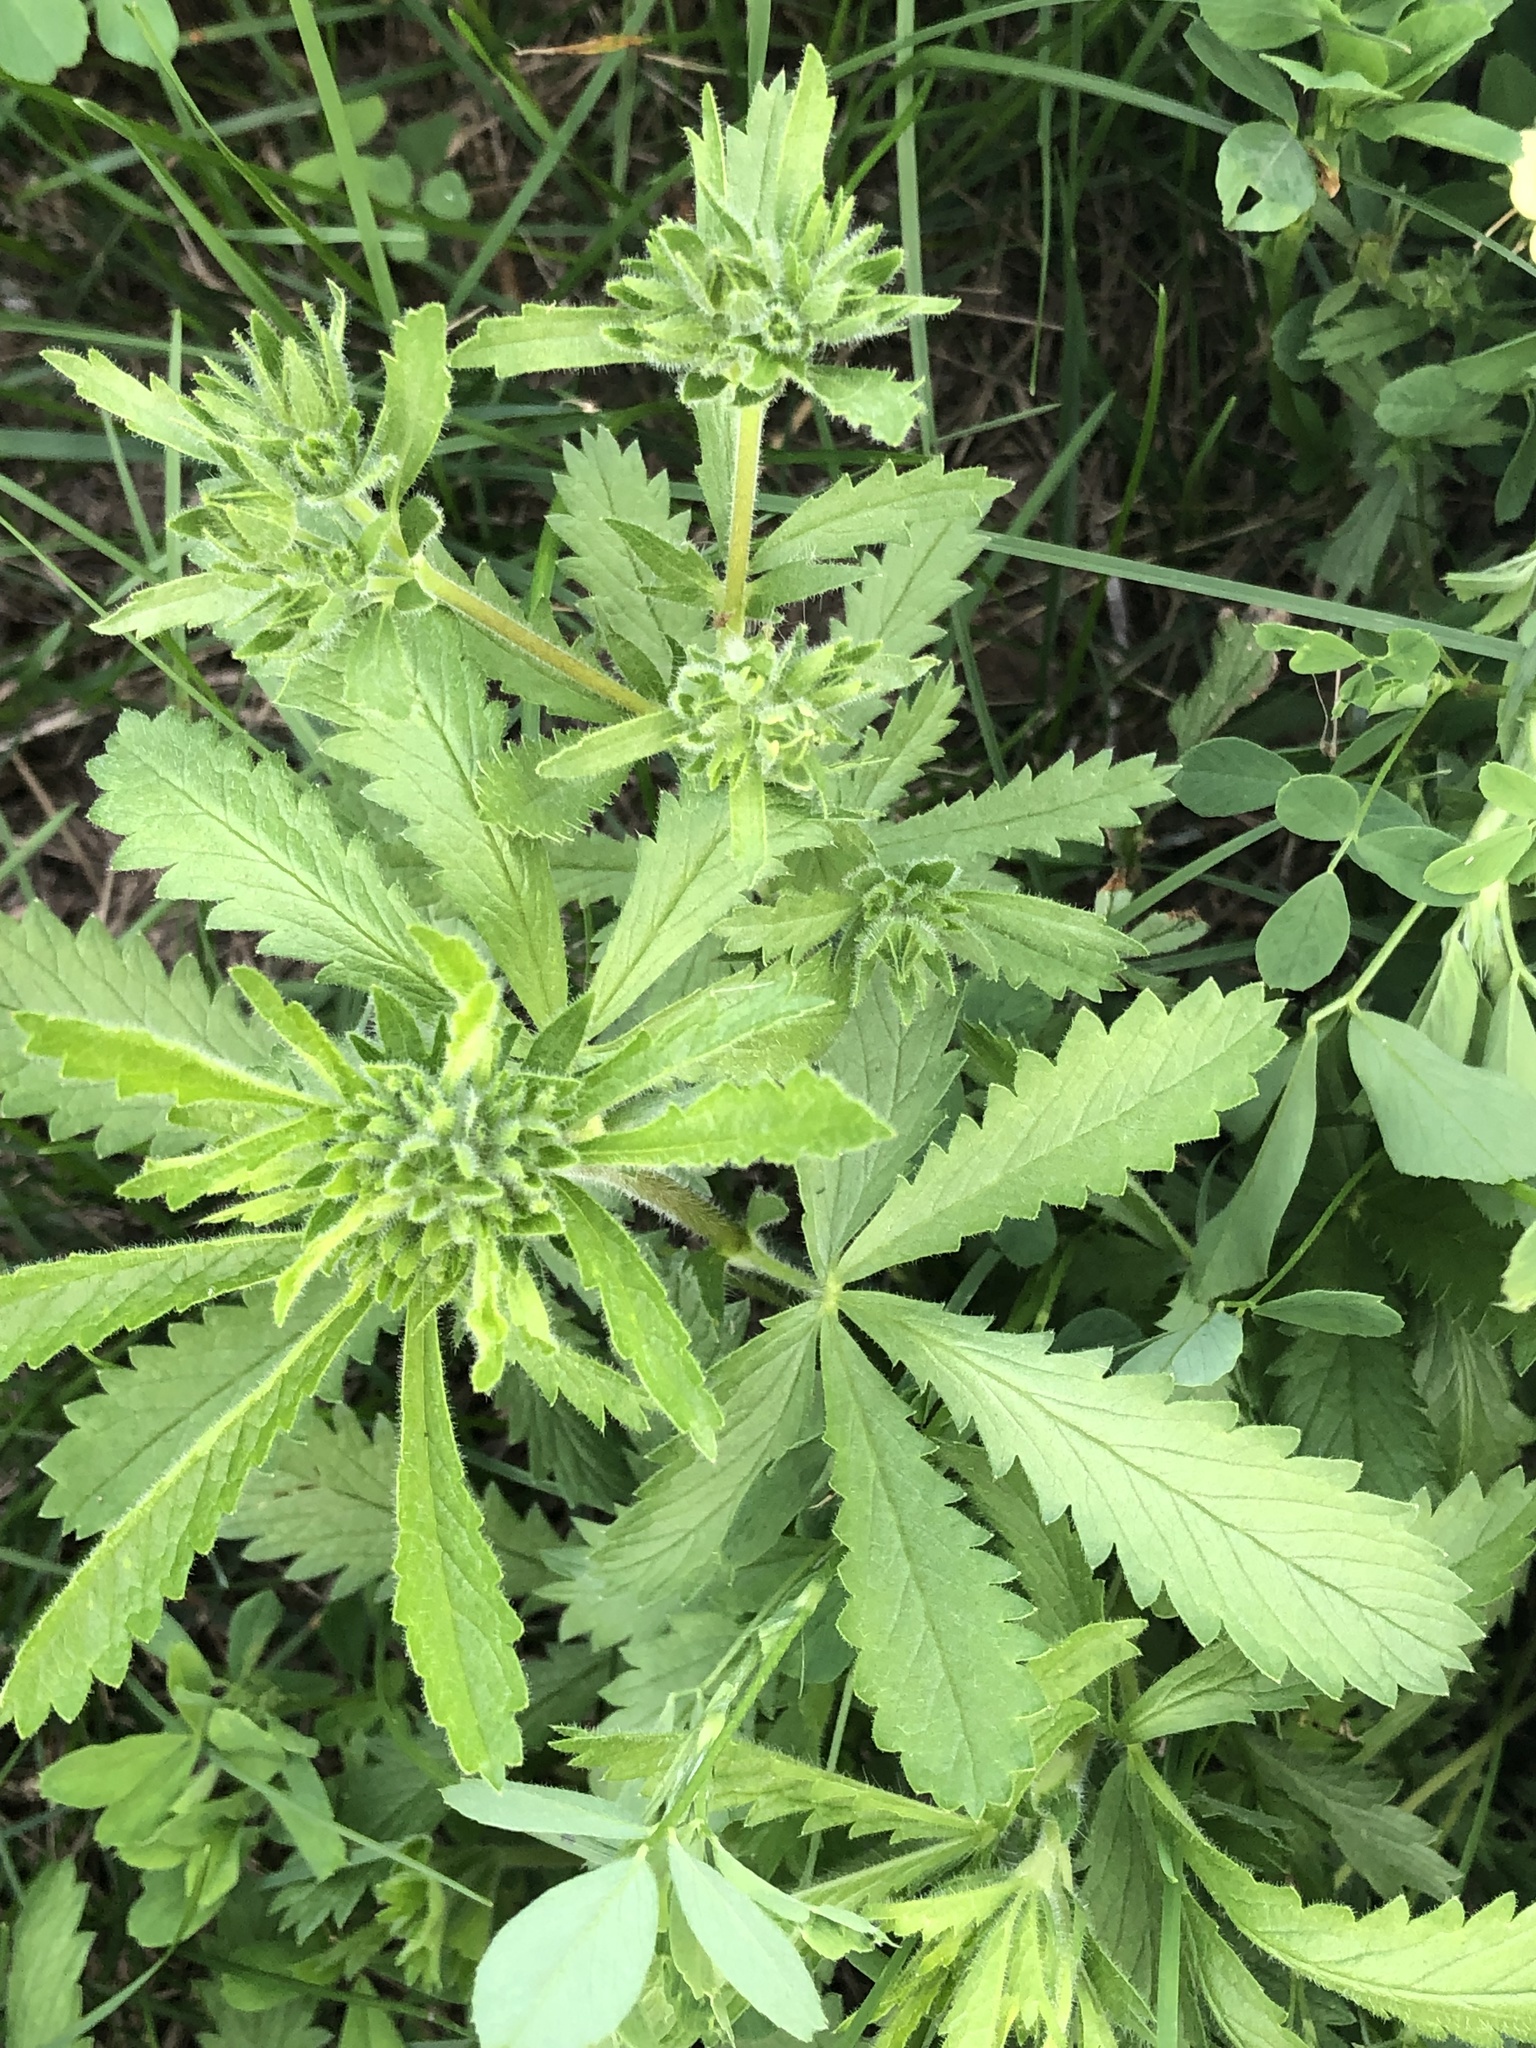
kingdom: Plantae
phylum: Tracheophyta
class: Magnoliopsida
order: Rosales
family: Rosaceae
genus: Potentilla
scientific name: Potentilla recta
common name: Sulphur cinquefoil
